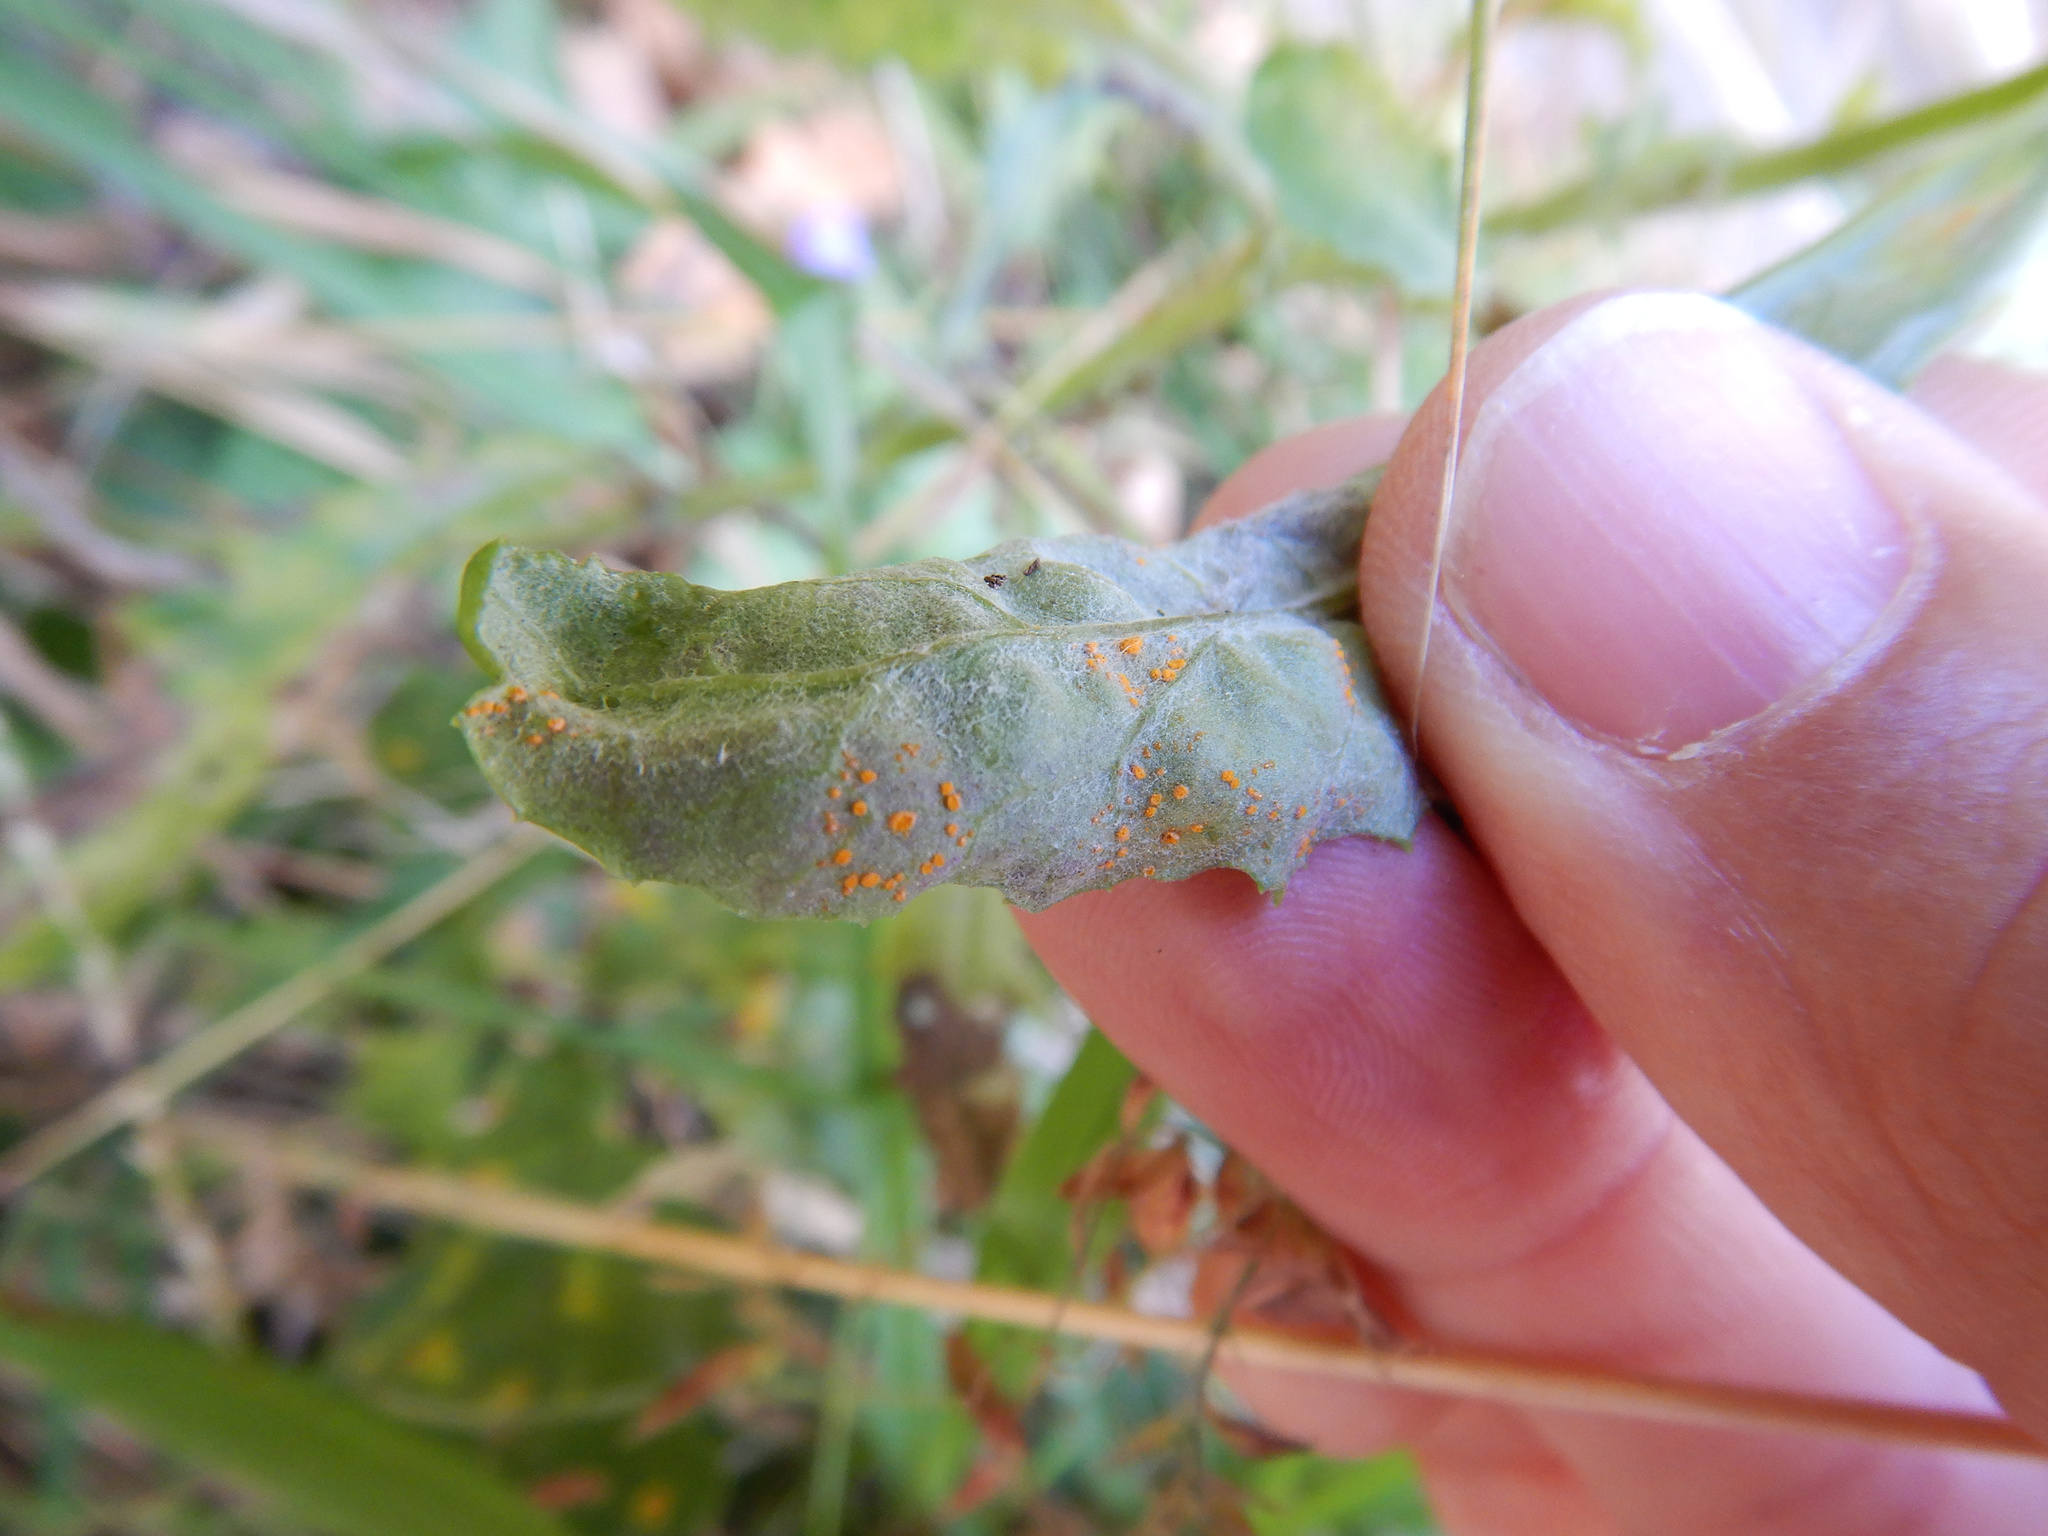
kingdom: Fungi
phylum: Basidiomycota
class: Pucciniomycetes
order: Pucciniales
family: Coleosporiaceae
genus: Coleosporium
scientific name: Coleosporium tussilaginis
